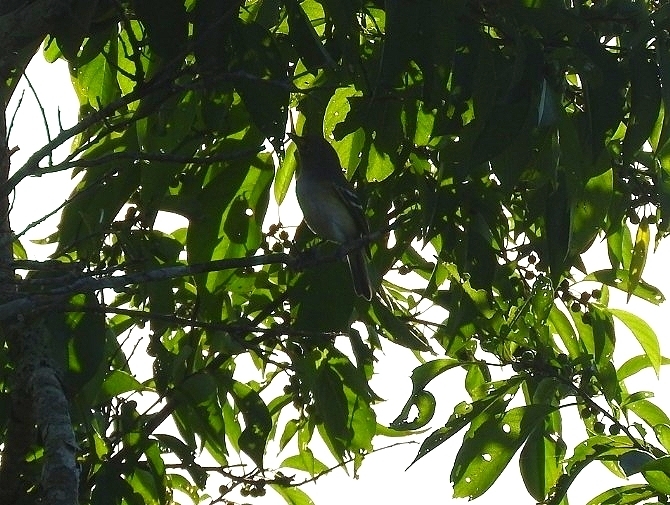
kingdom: Animalia
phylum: Chordata
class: Aves
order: Passeriformes
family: Vireonidae
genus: Vireo
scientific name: Vireo griseus
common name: White-eyed vireo
